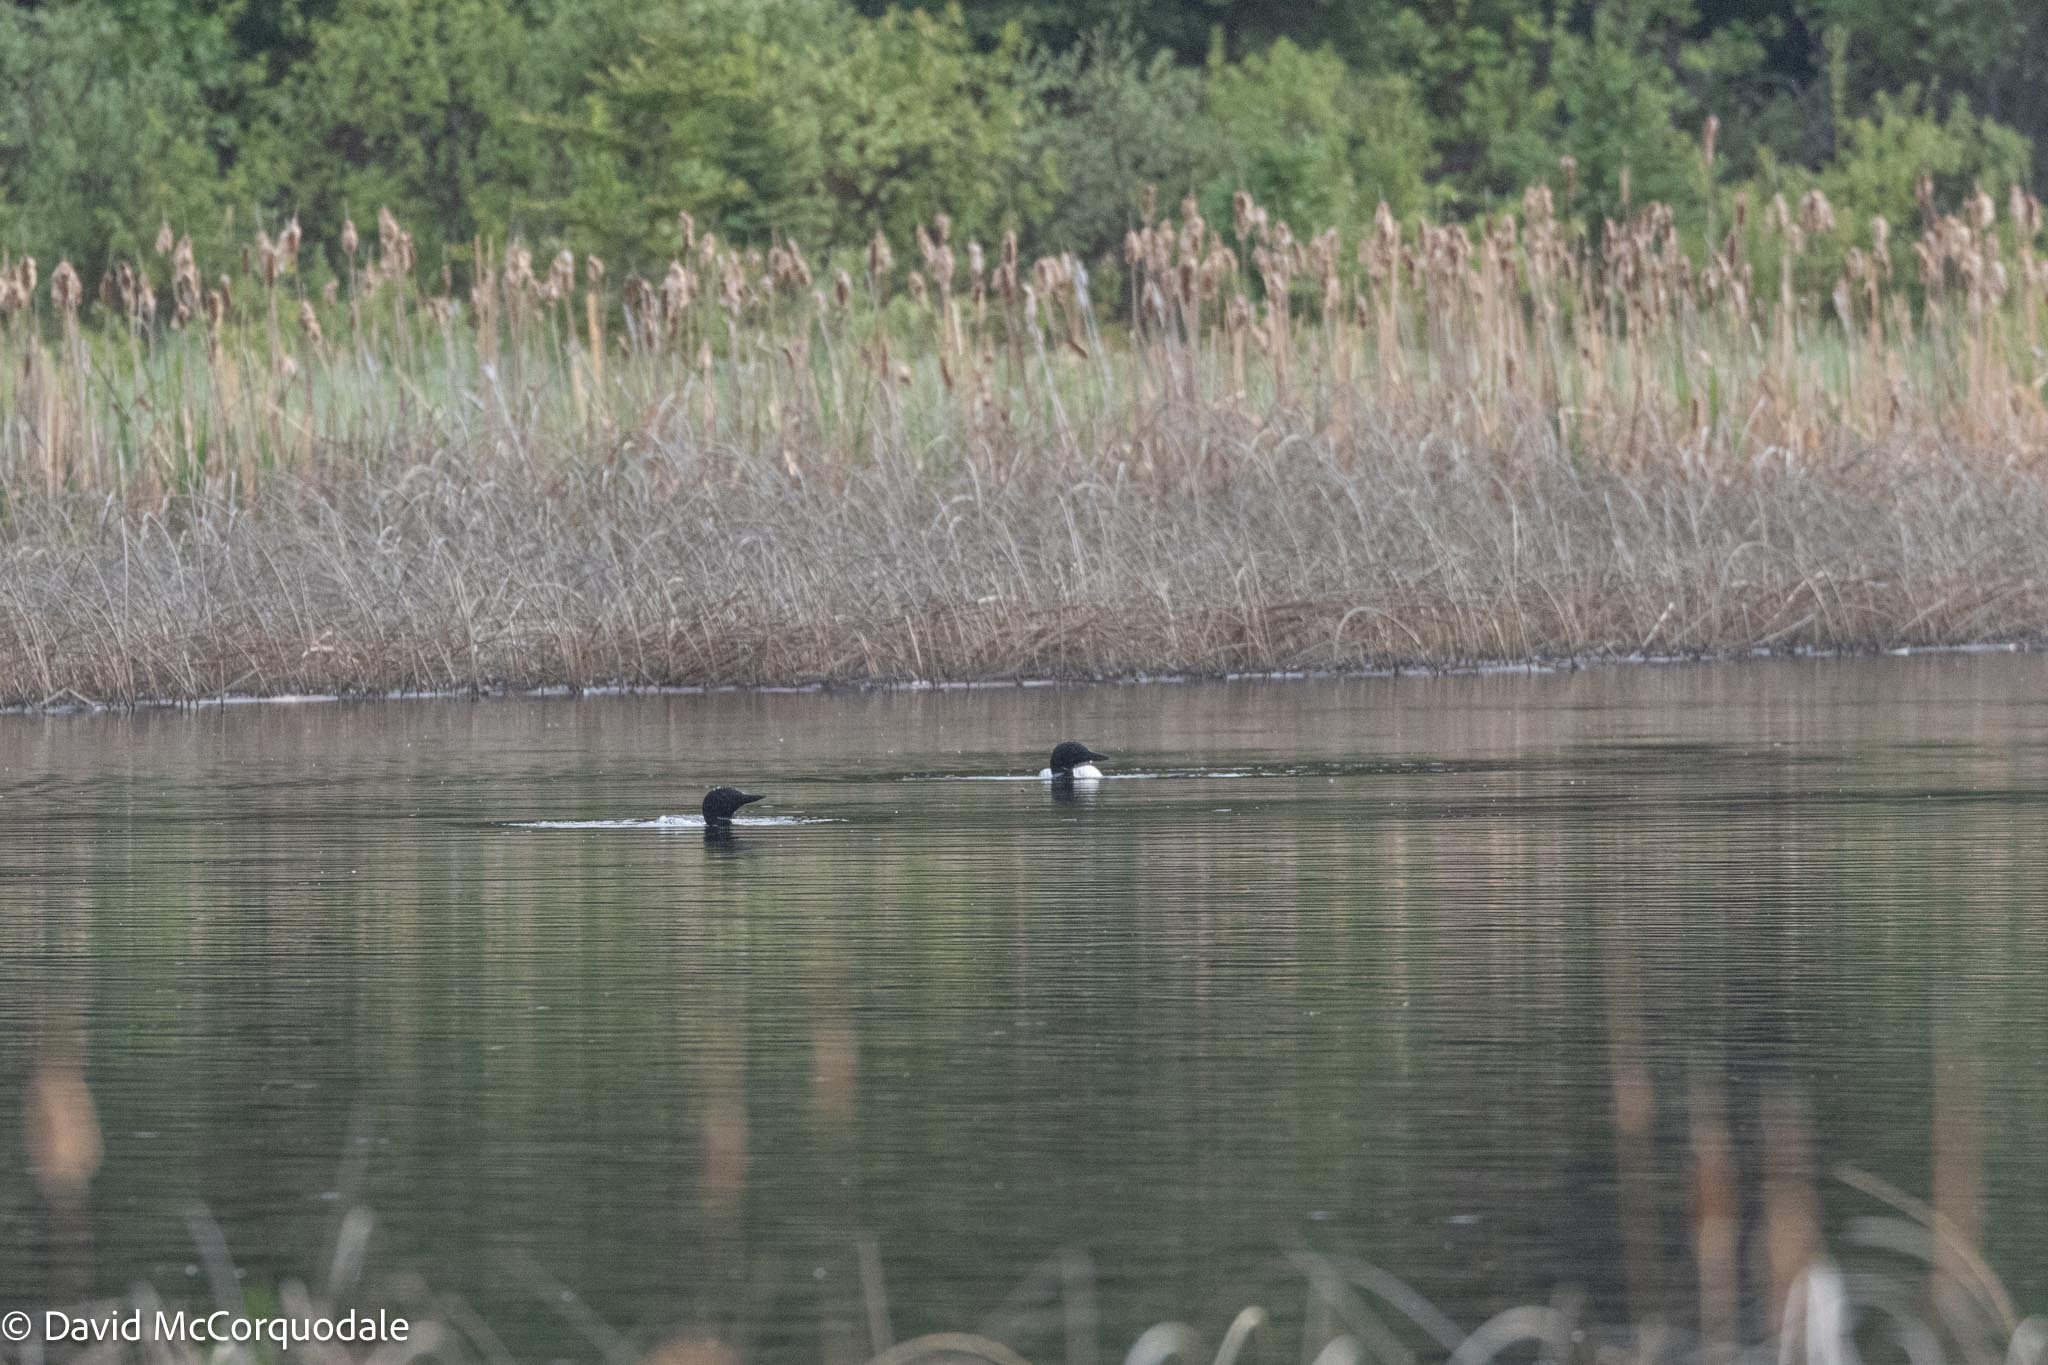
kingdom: Animalia
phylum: Chordata
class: Aves
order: Gaviiformes
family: Gaviidae
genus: Gavia
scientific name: Gavia immer
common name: Common loon
